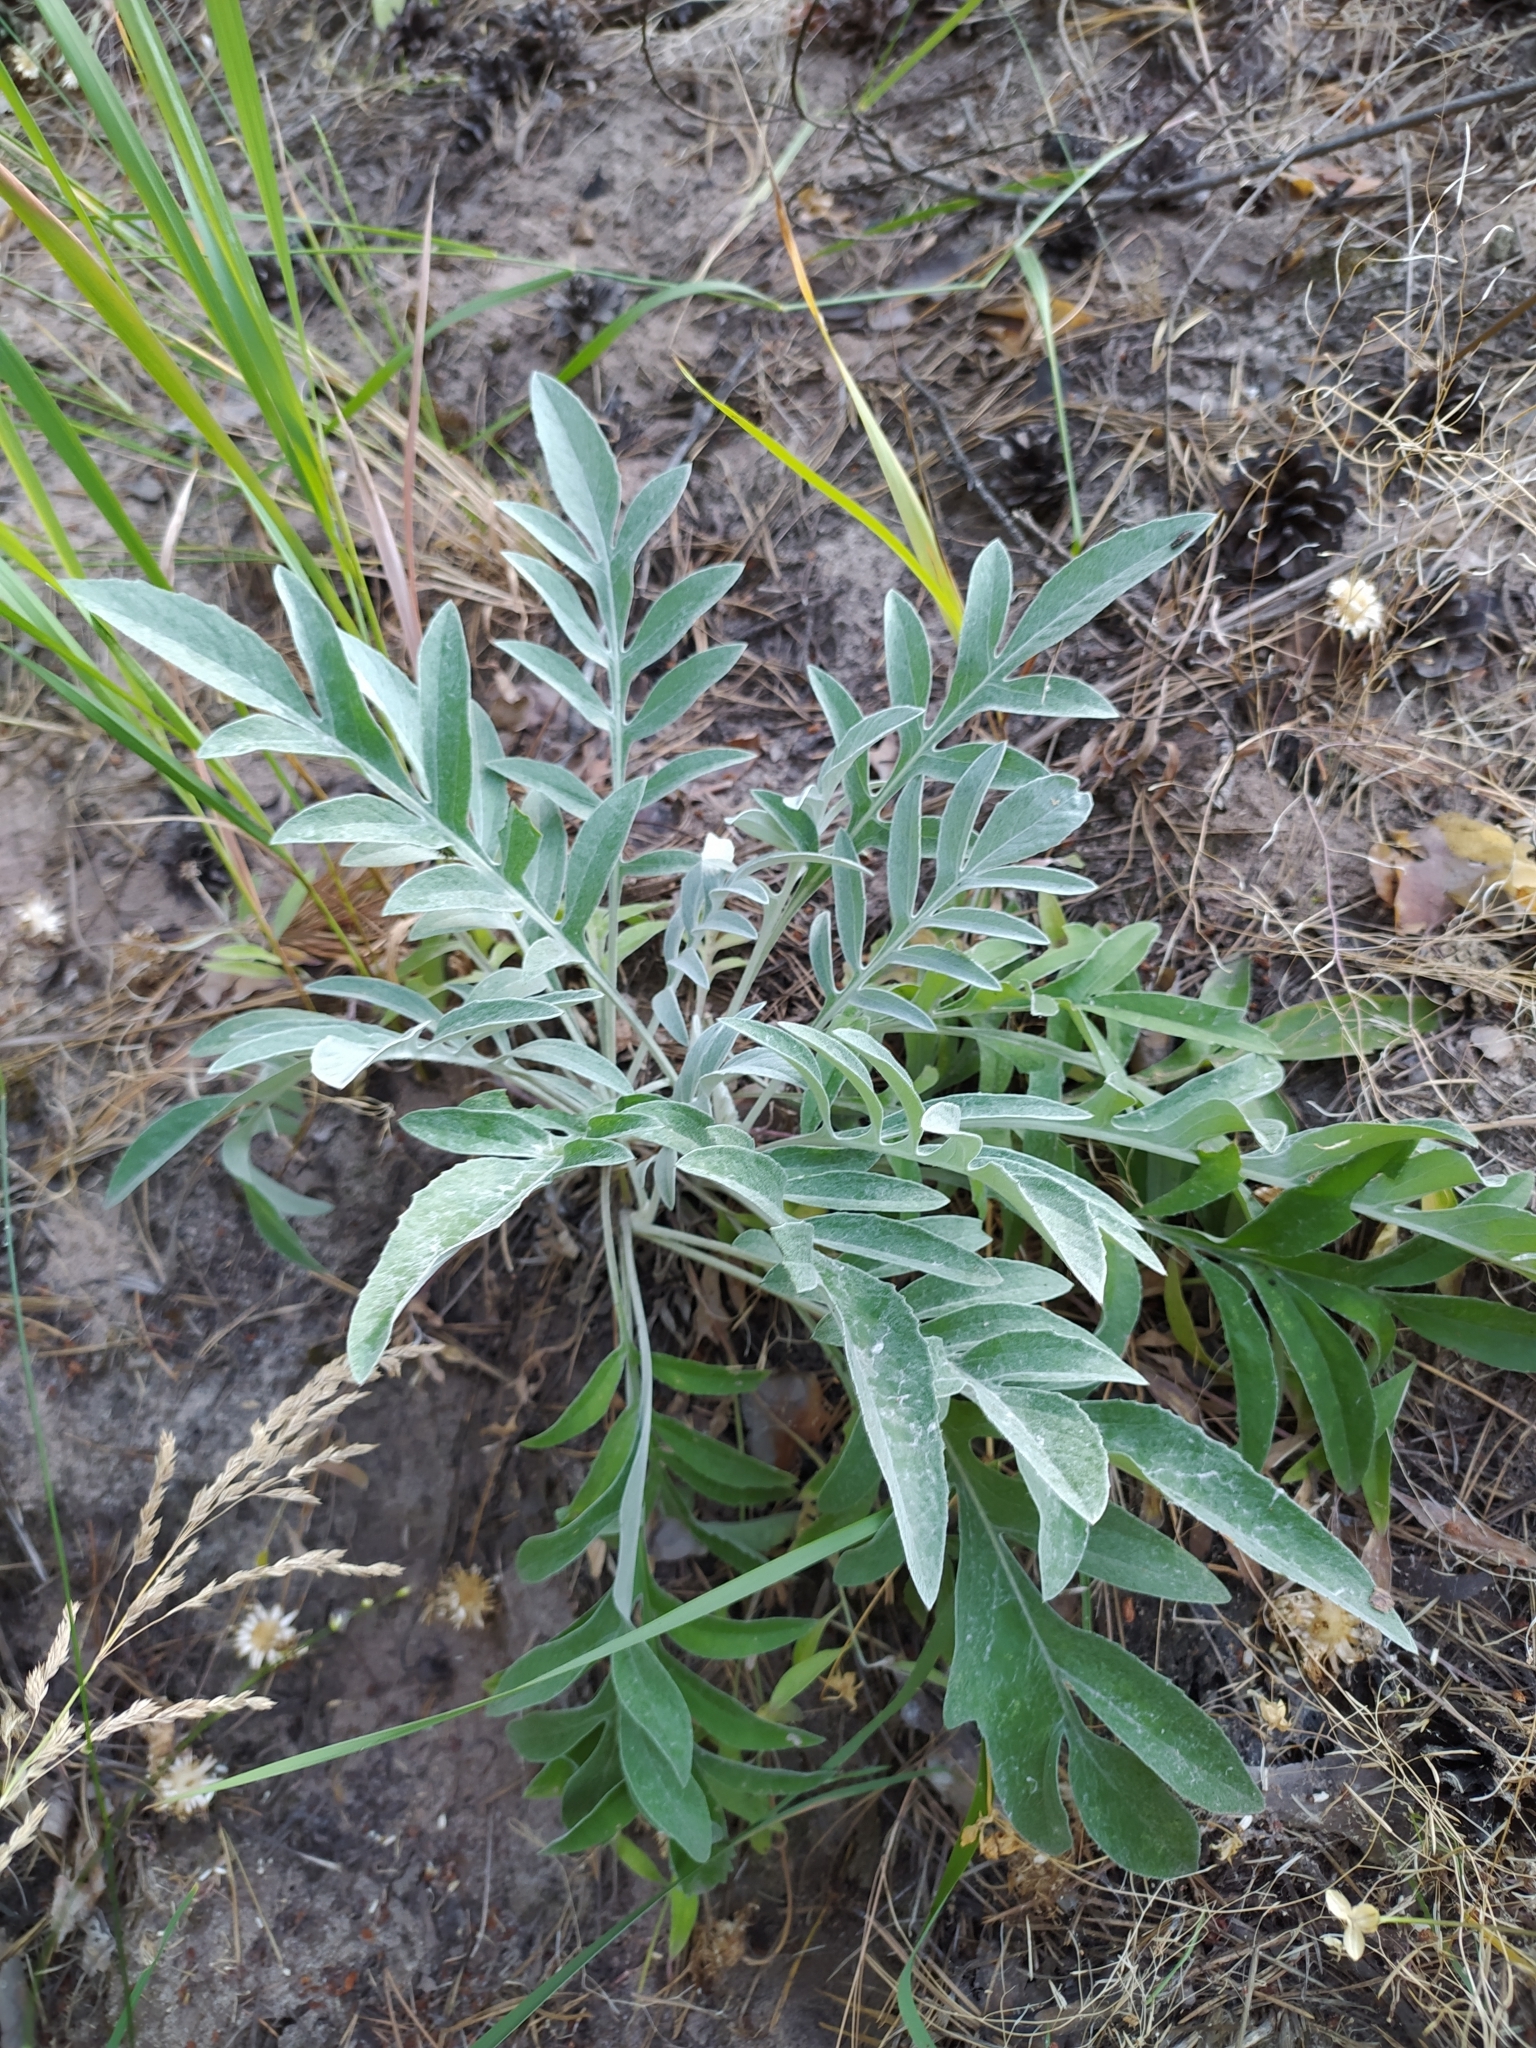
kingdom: Plantae
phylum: Tracheophyta
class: Magnoliopsida
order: Asterales
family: Asteraceae
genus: Psephellus
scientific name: Psephellus sumensis
